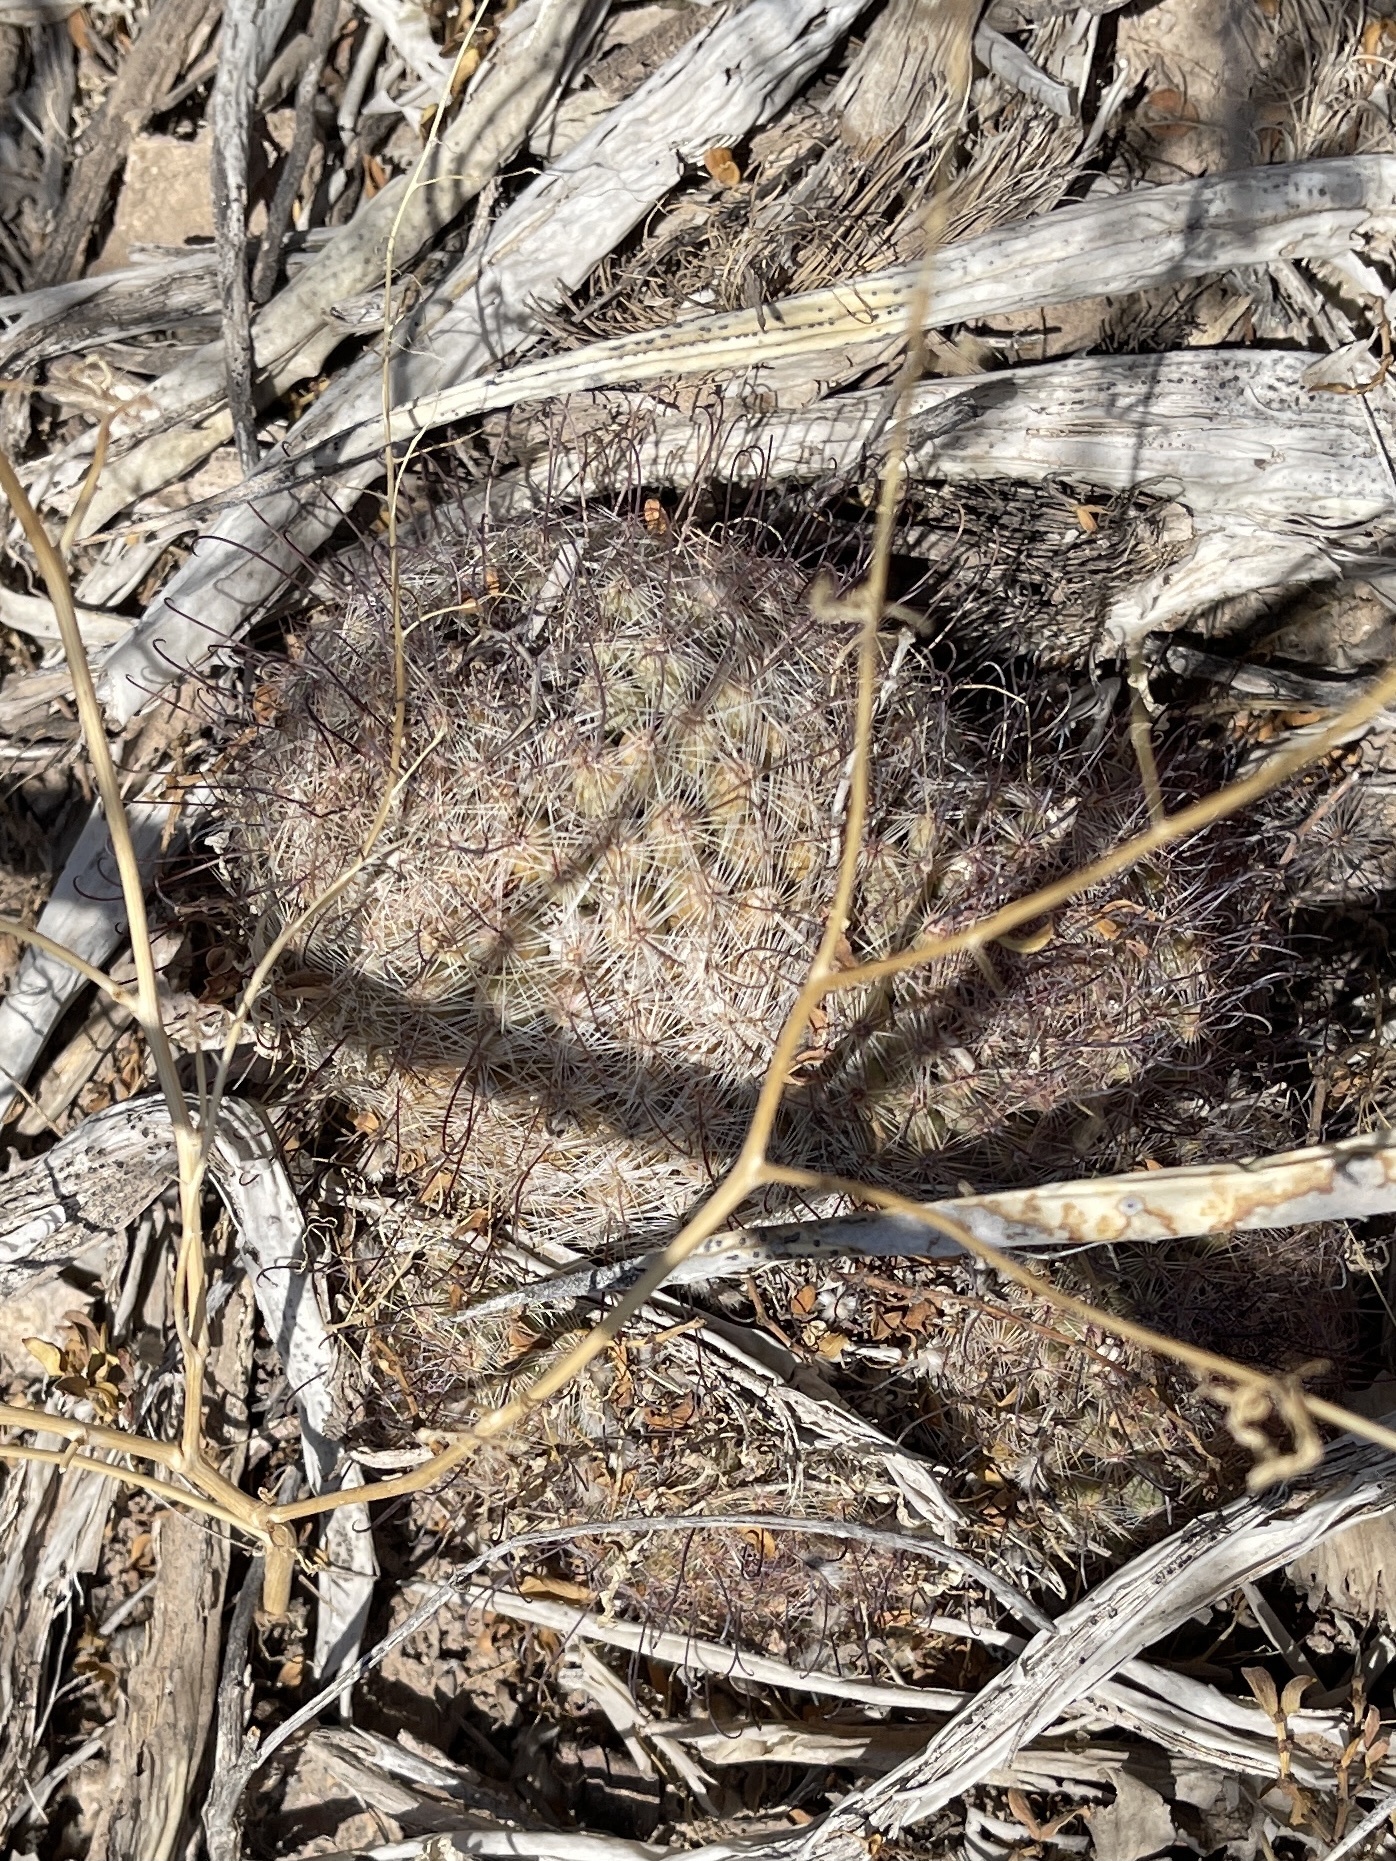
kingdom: Plantae
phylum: Tracheophyta
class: Magnoliopsida
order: Caryophyllales
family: Cactaceae
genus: Cochemiea
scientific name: Cochemiea grahamii
